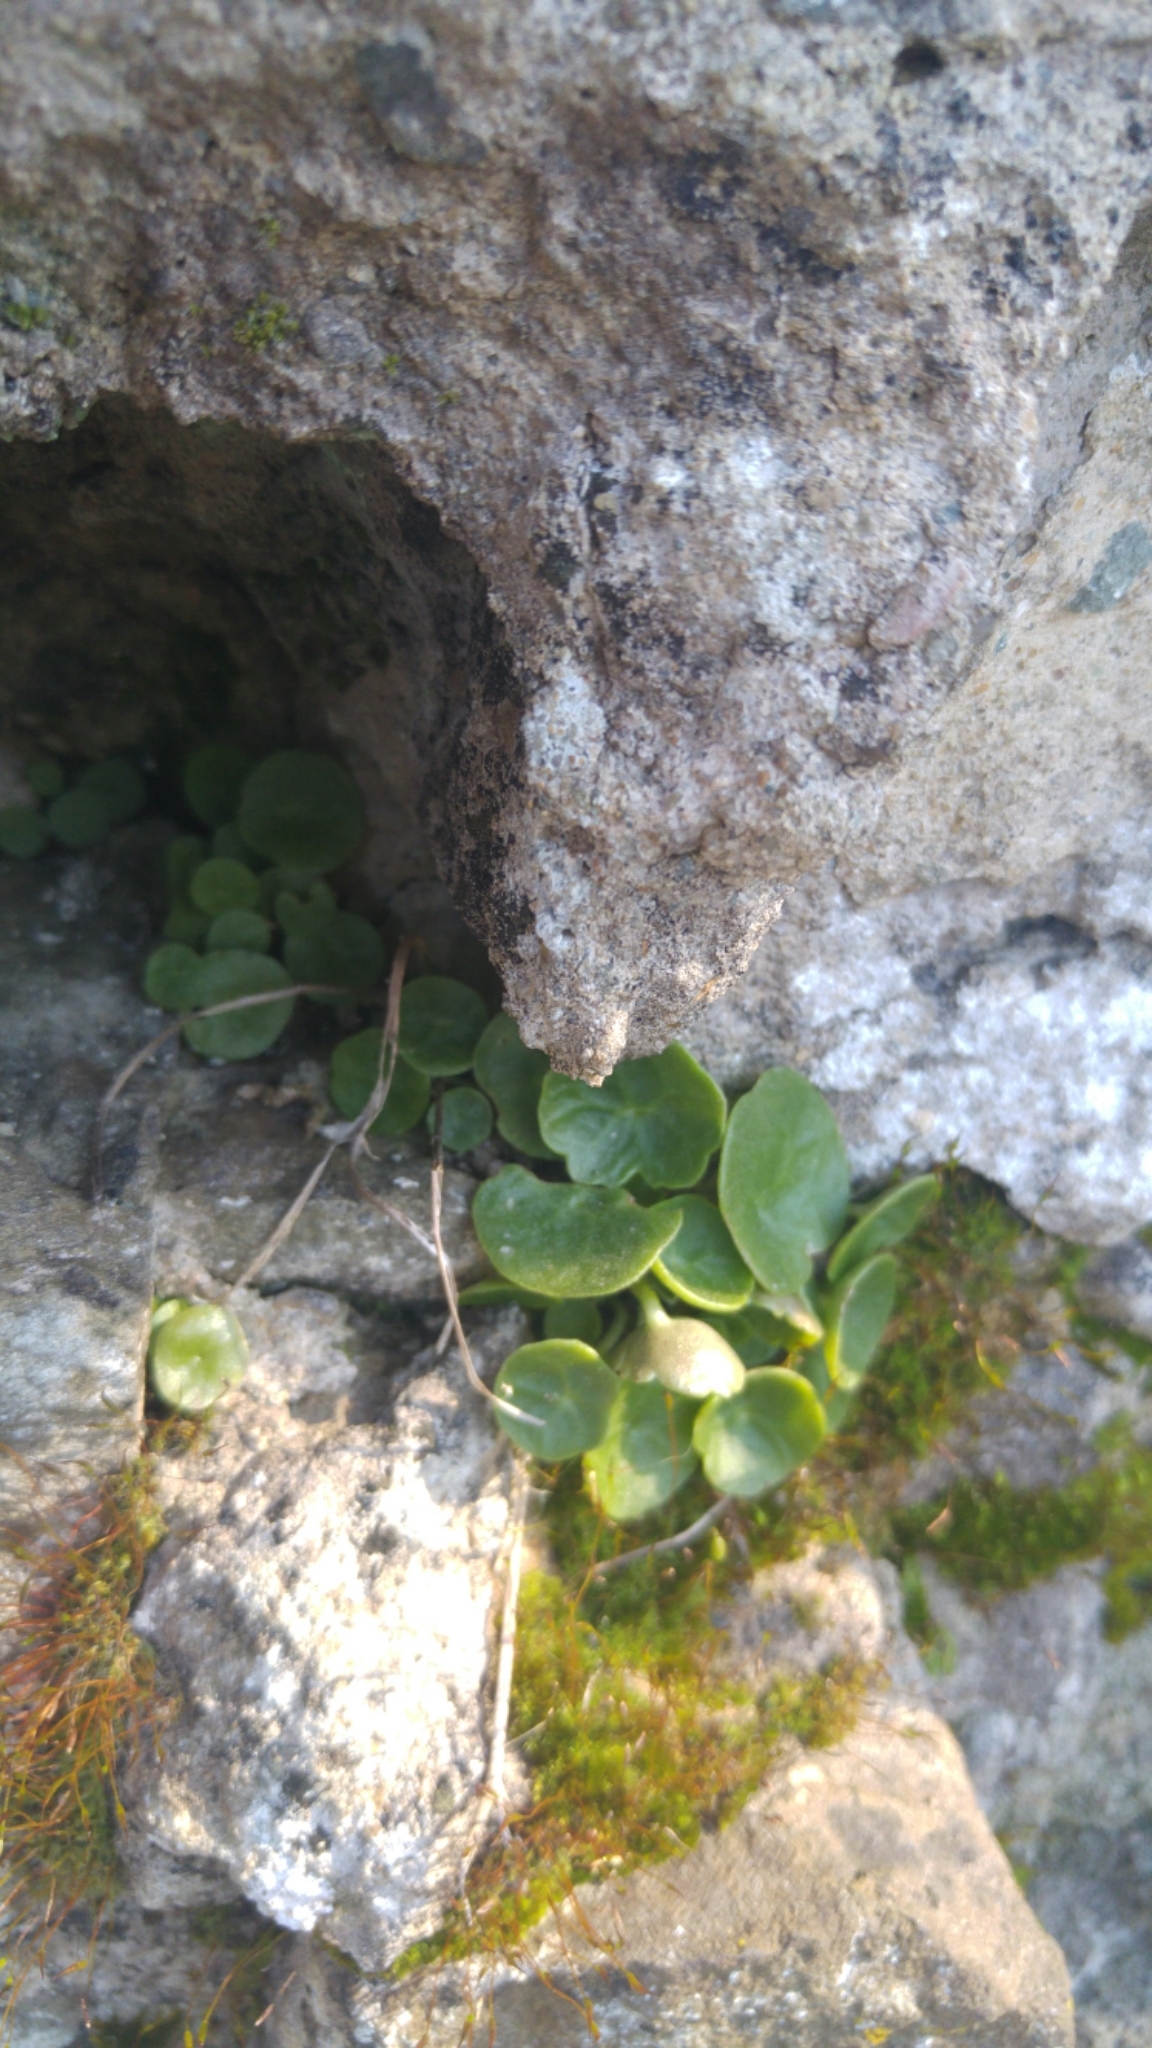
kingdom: Plantae
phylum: Tracheophyta
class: Magnoliopsida
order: Saxifragales
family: Crassulaceae
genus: Umbilicus
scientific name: Umbilicus rupestris
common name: Navelwort
